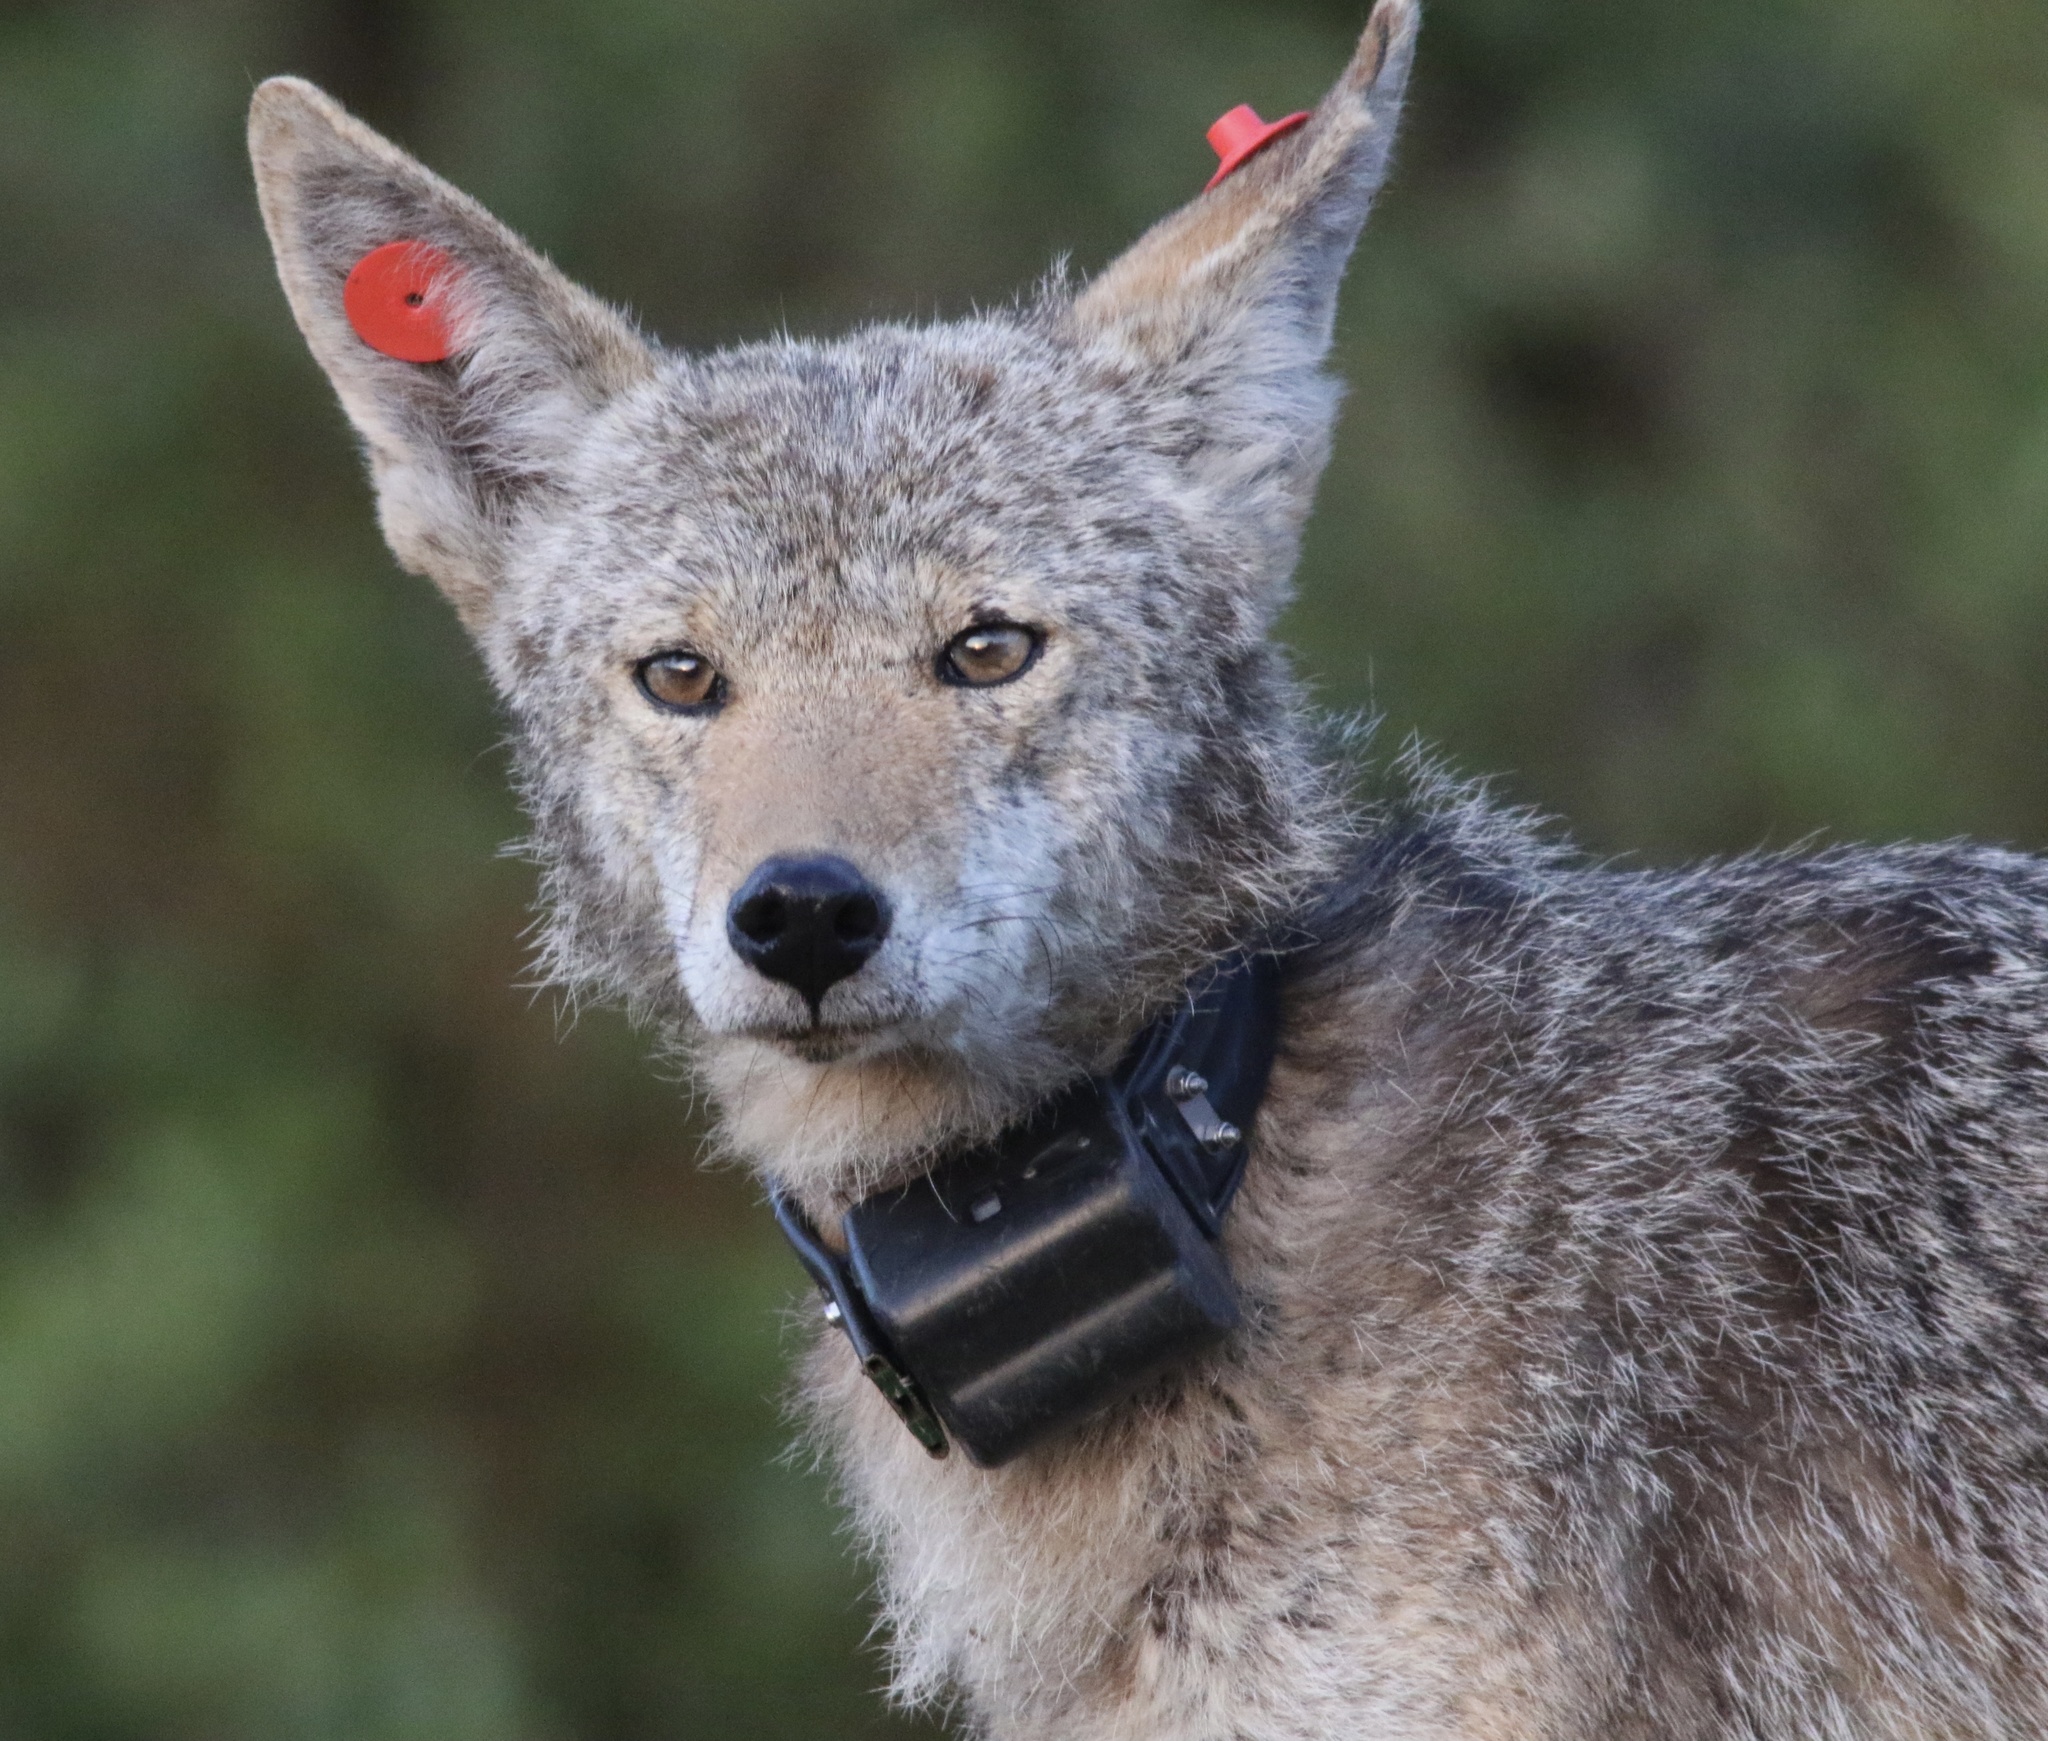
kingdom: Animalia
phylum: Chordata
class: Mammalia
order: Carnivora
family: Canidae
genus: Canis
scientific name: Canis latrans
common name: Coyote
